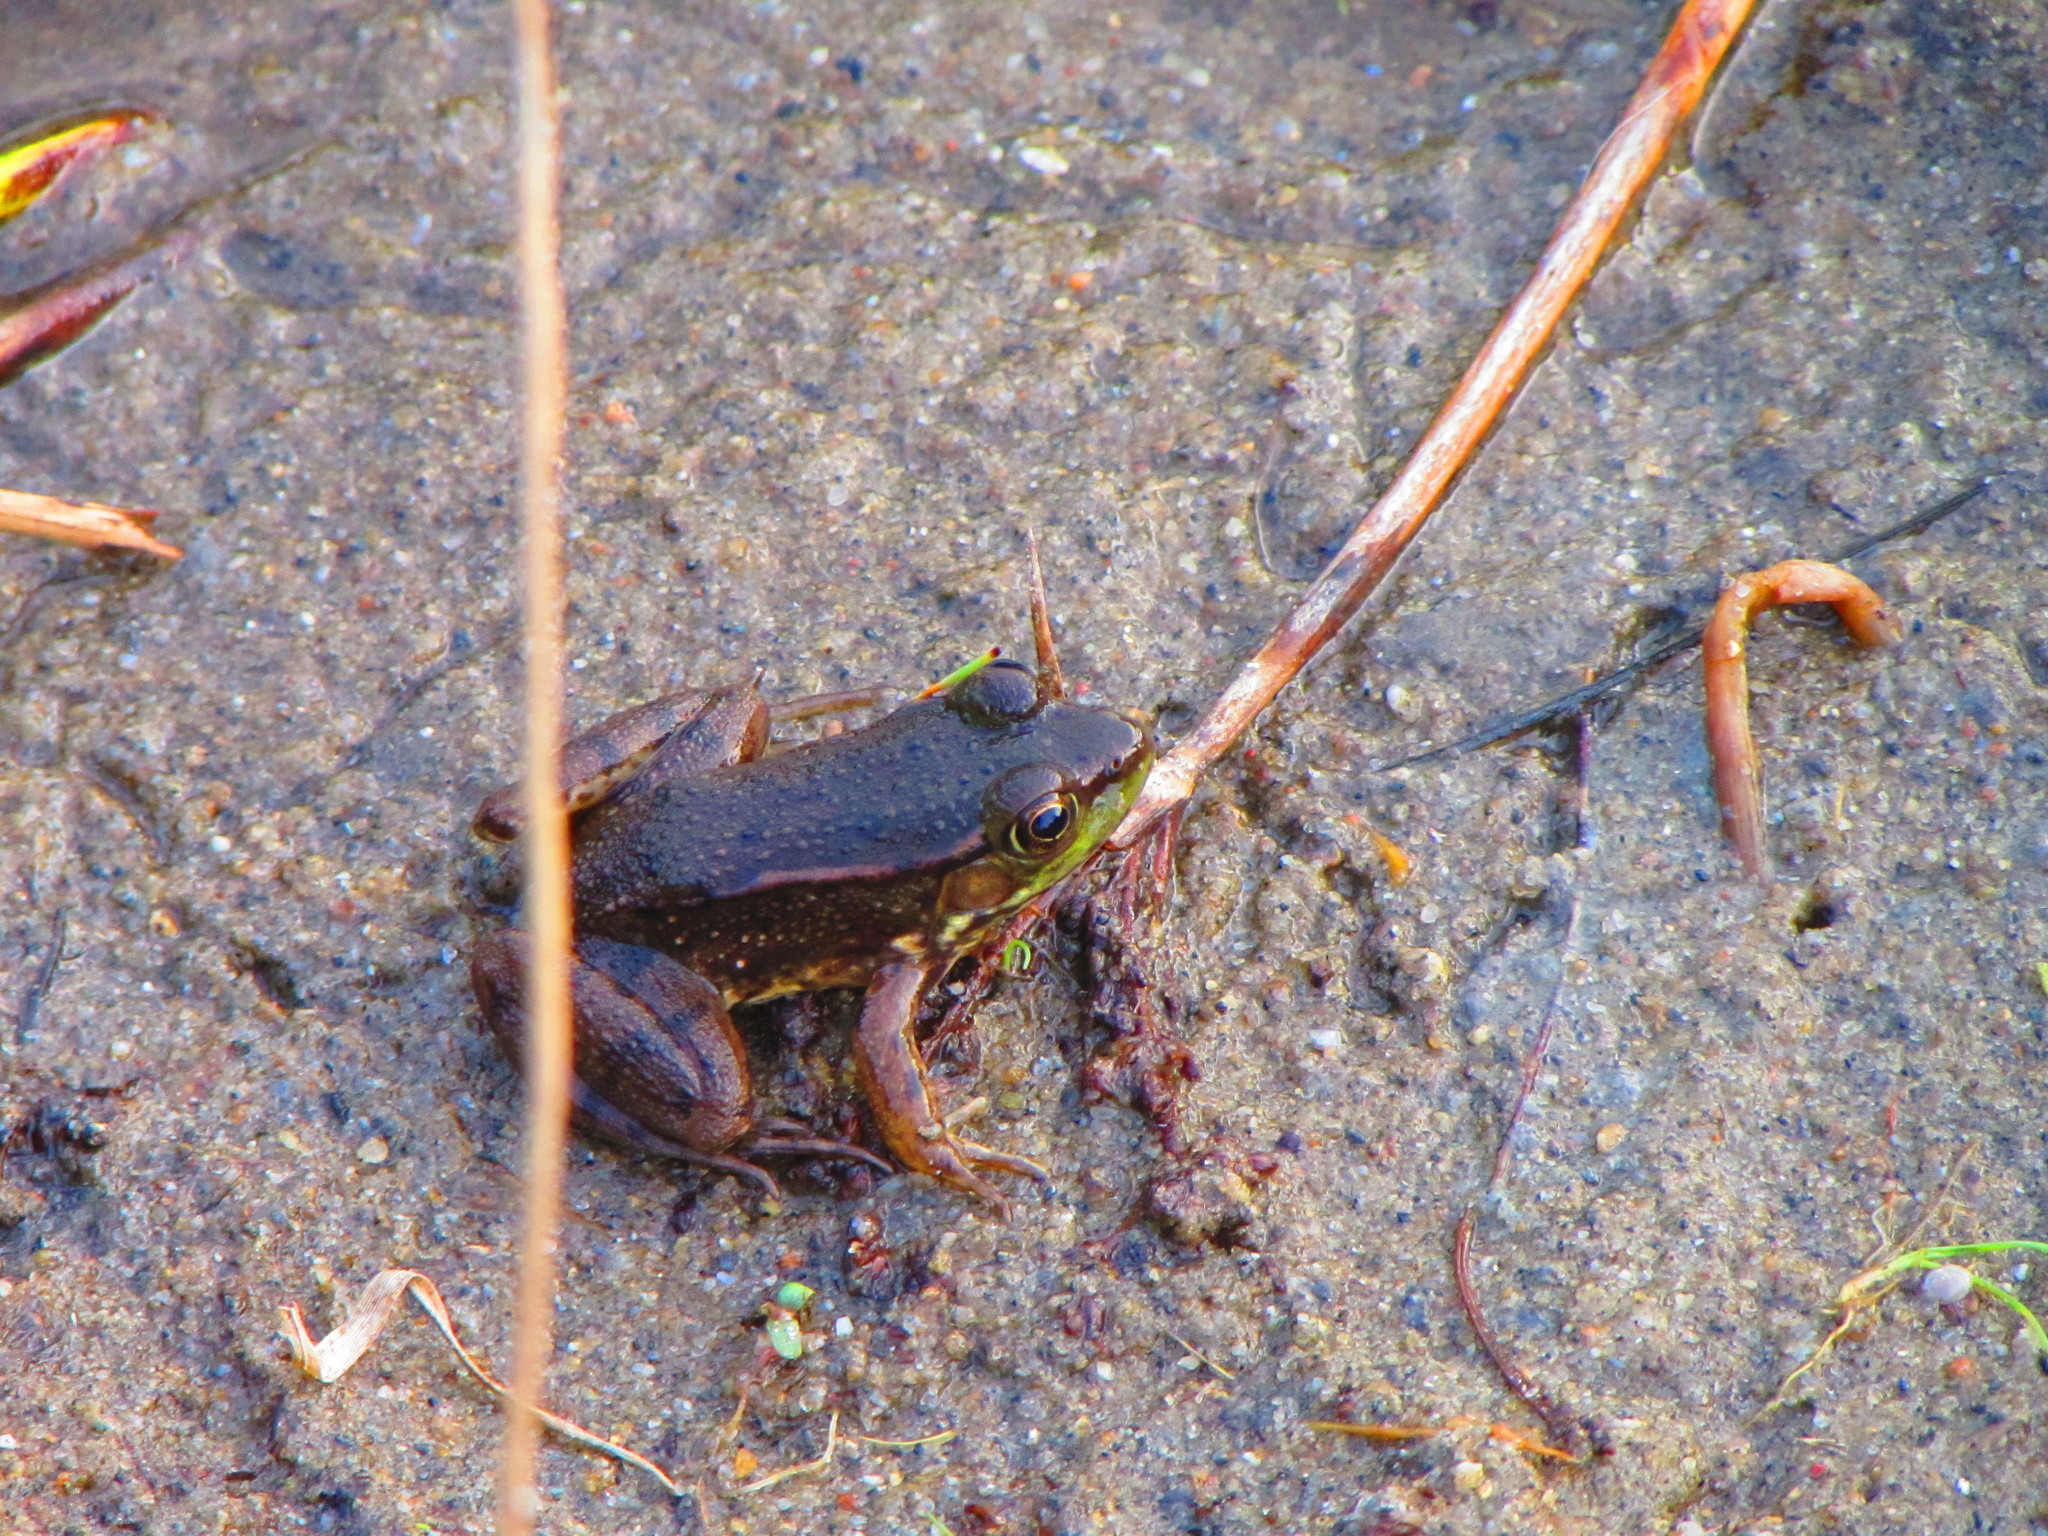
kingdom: Animalia
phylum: Chordata
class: Amphibia
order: Anura
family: Ranidae
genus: Lithobates
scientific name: Lithobates clamitans
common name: Green frog
